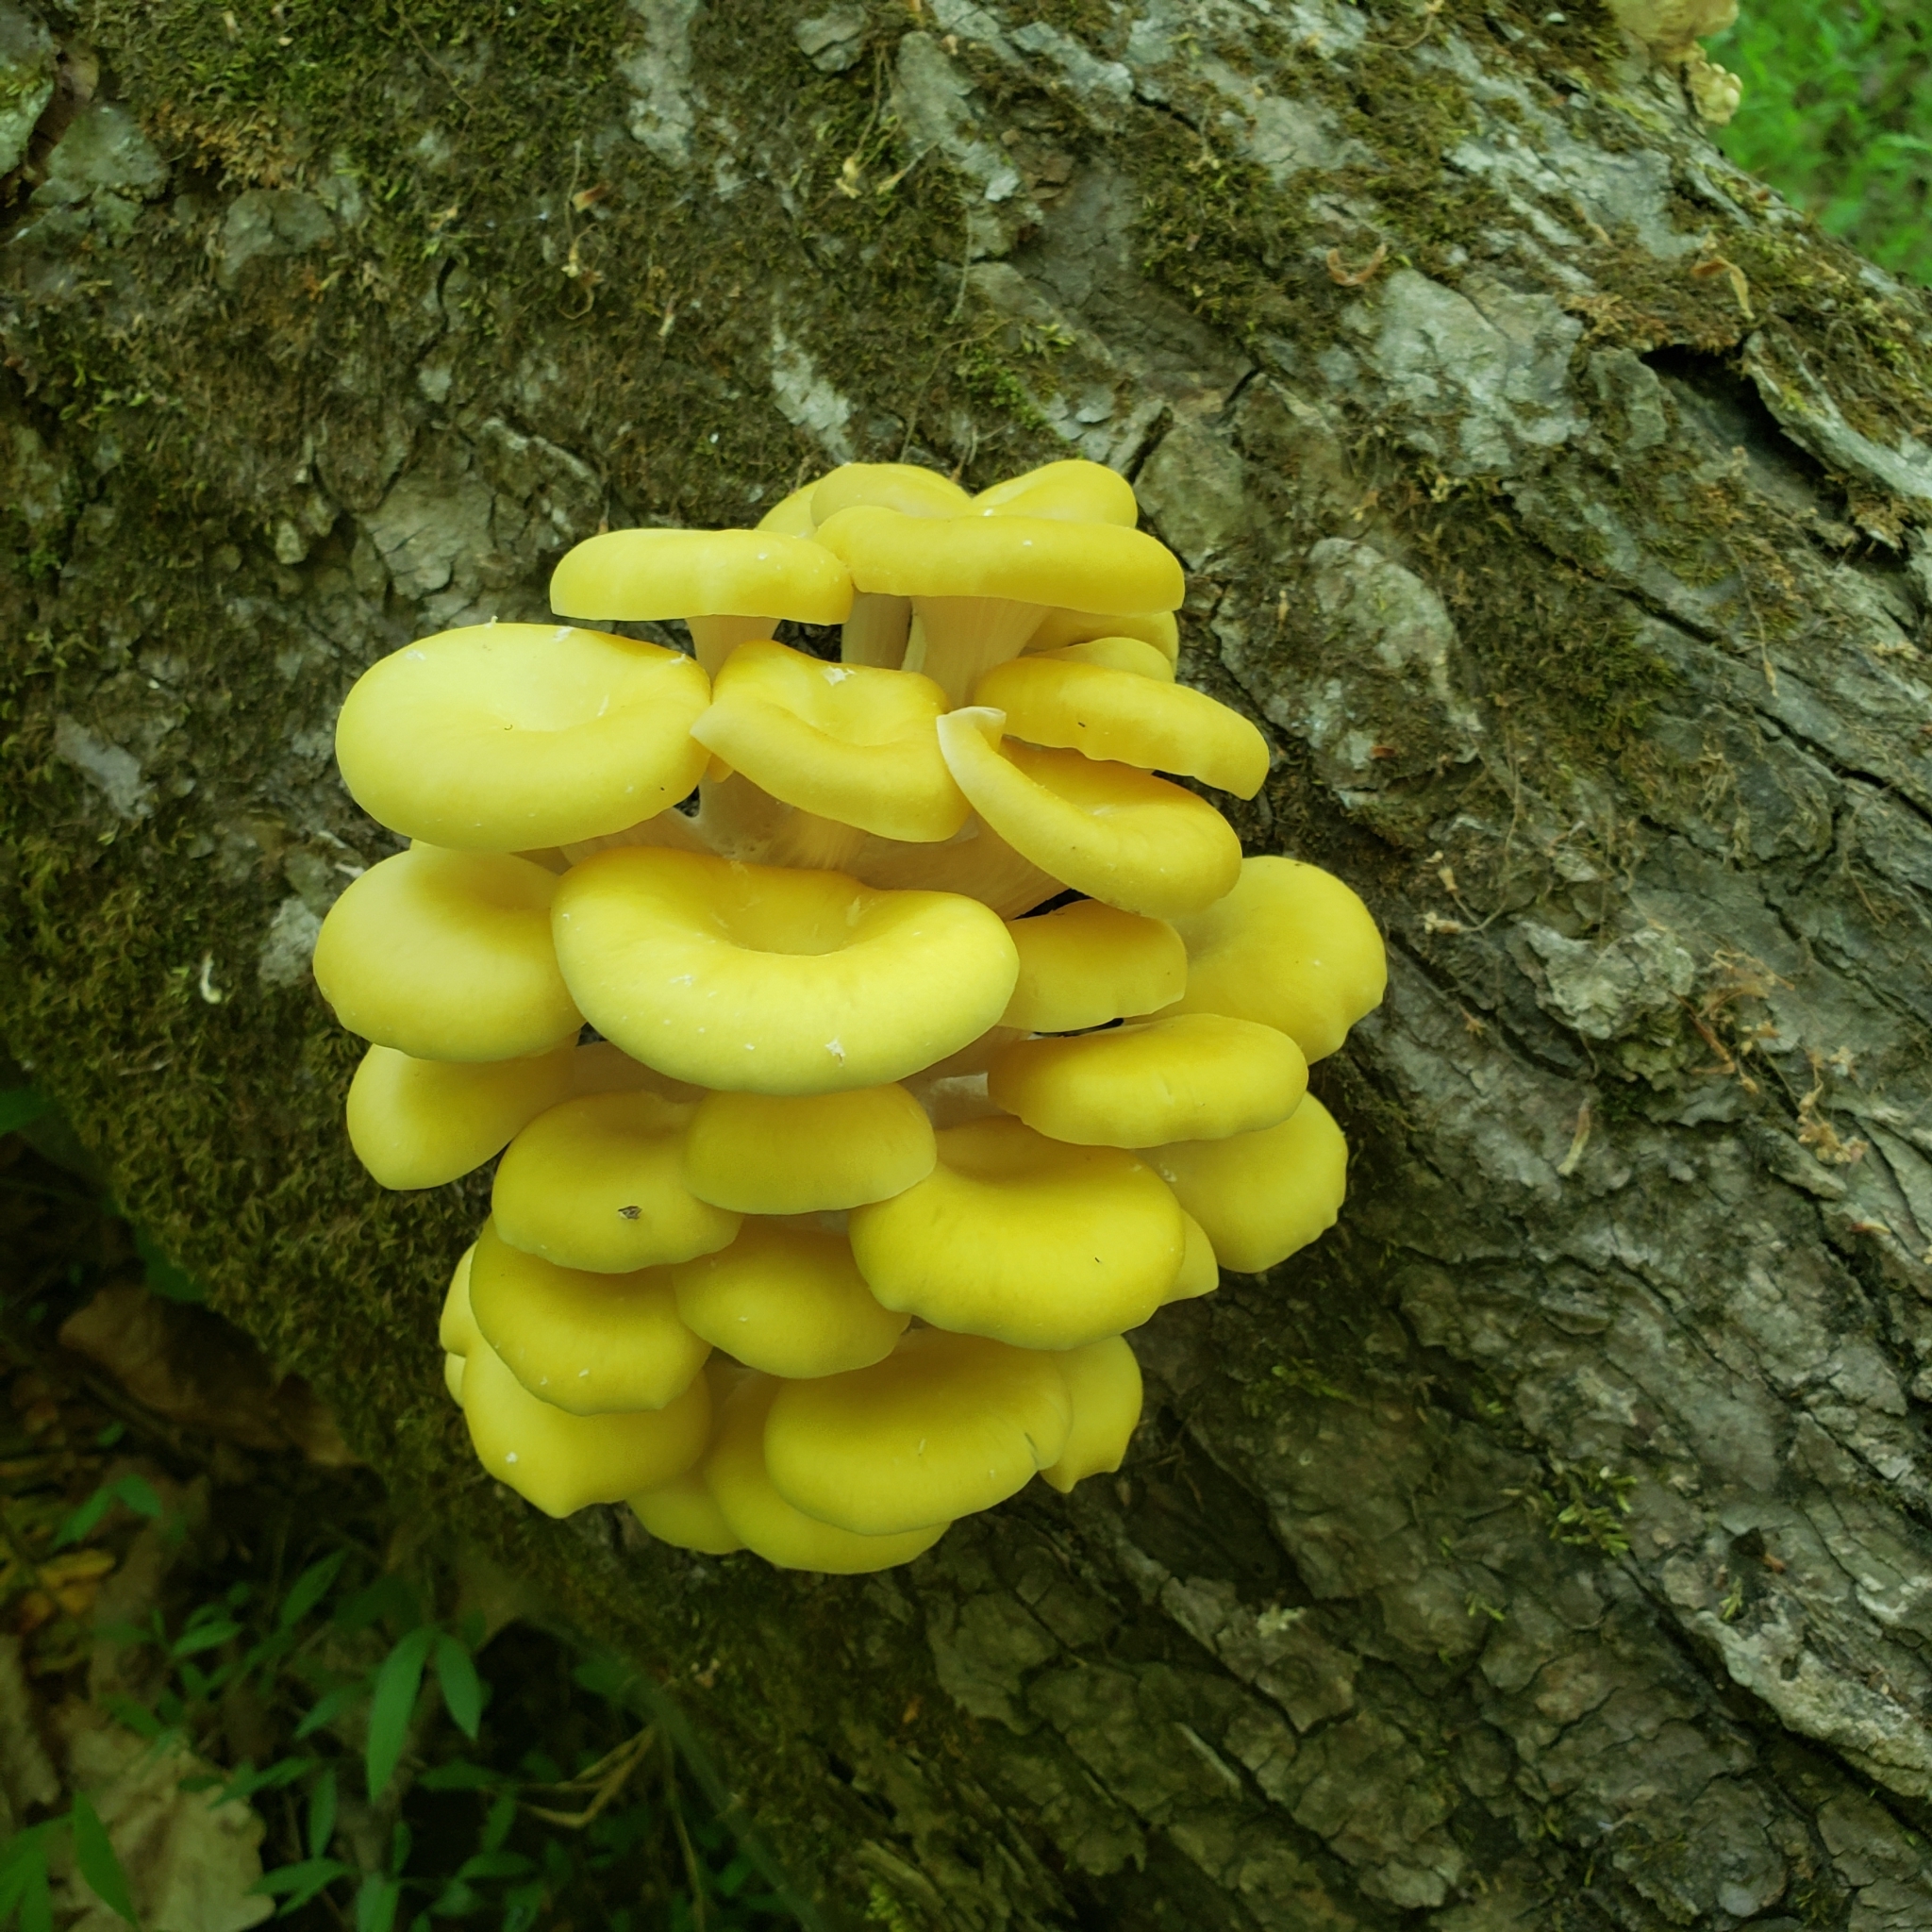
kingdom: Fungi
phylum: Basidiomycota
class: Agaricomycetes
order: Agaricales
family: Pleurotaceae
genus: Pleurotus
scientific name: Pleurotus citrinopileatus
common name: Golden oyster mushroom
